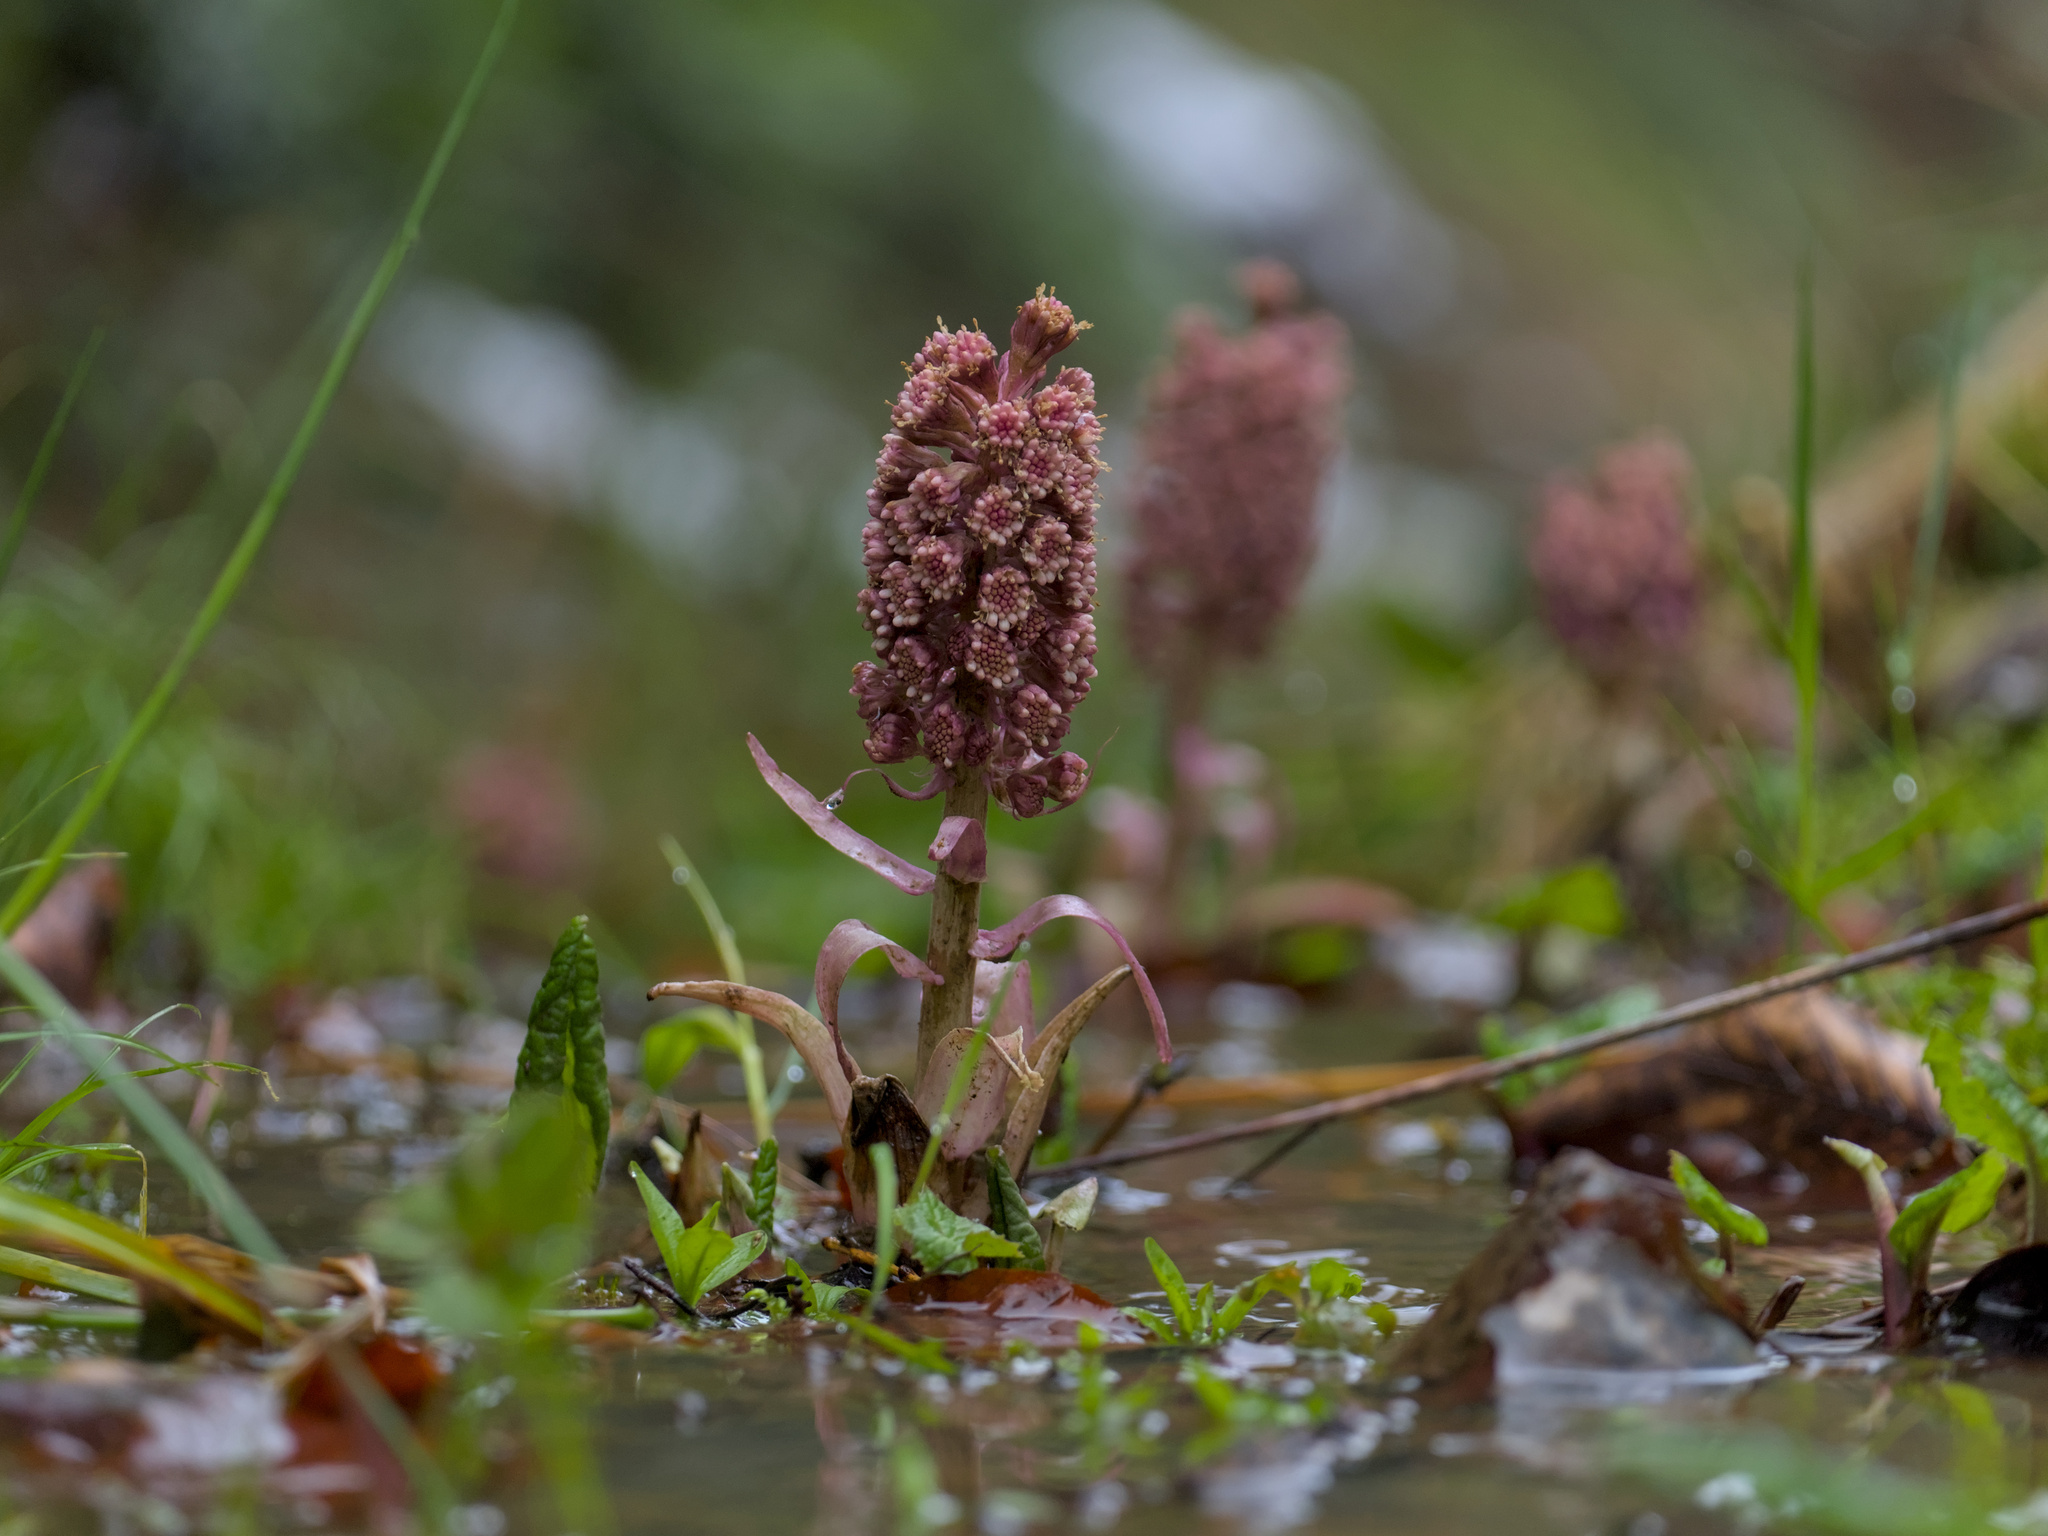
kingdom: Plantae
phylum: Tracheophyta
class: Magnoliopsida
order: Asterales
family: Asteraceae
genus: Petasites
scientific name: Petasites hybridus
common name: Butterbur
